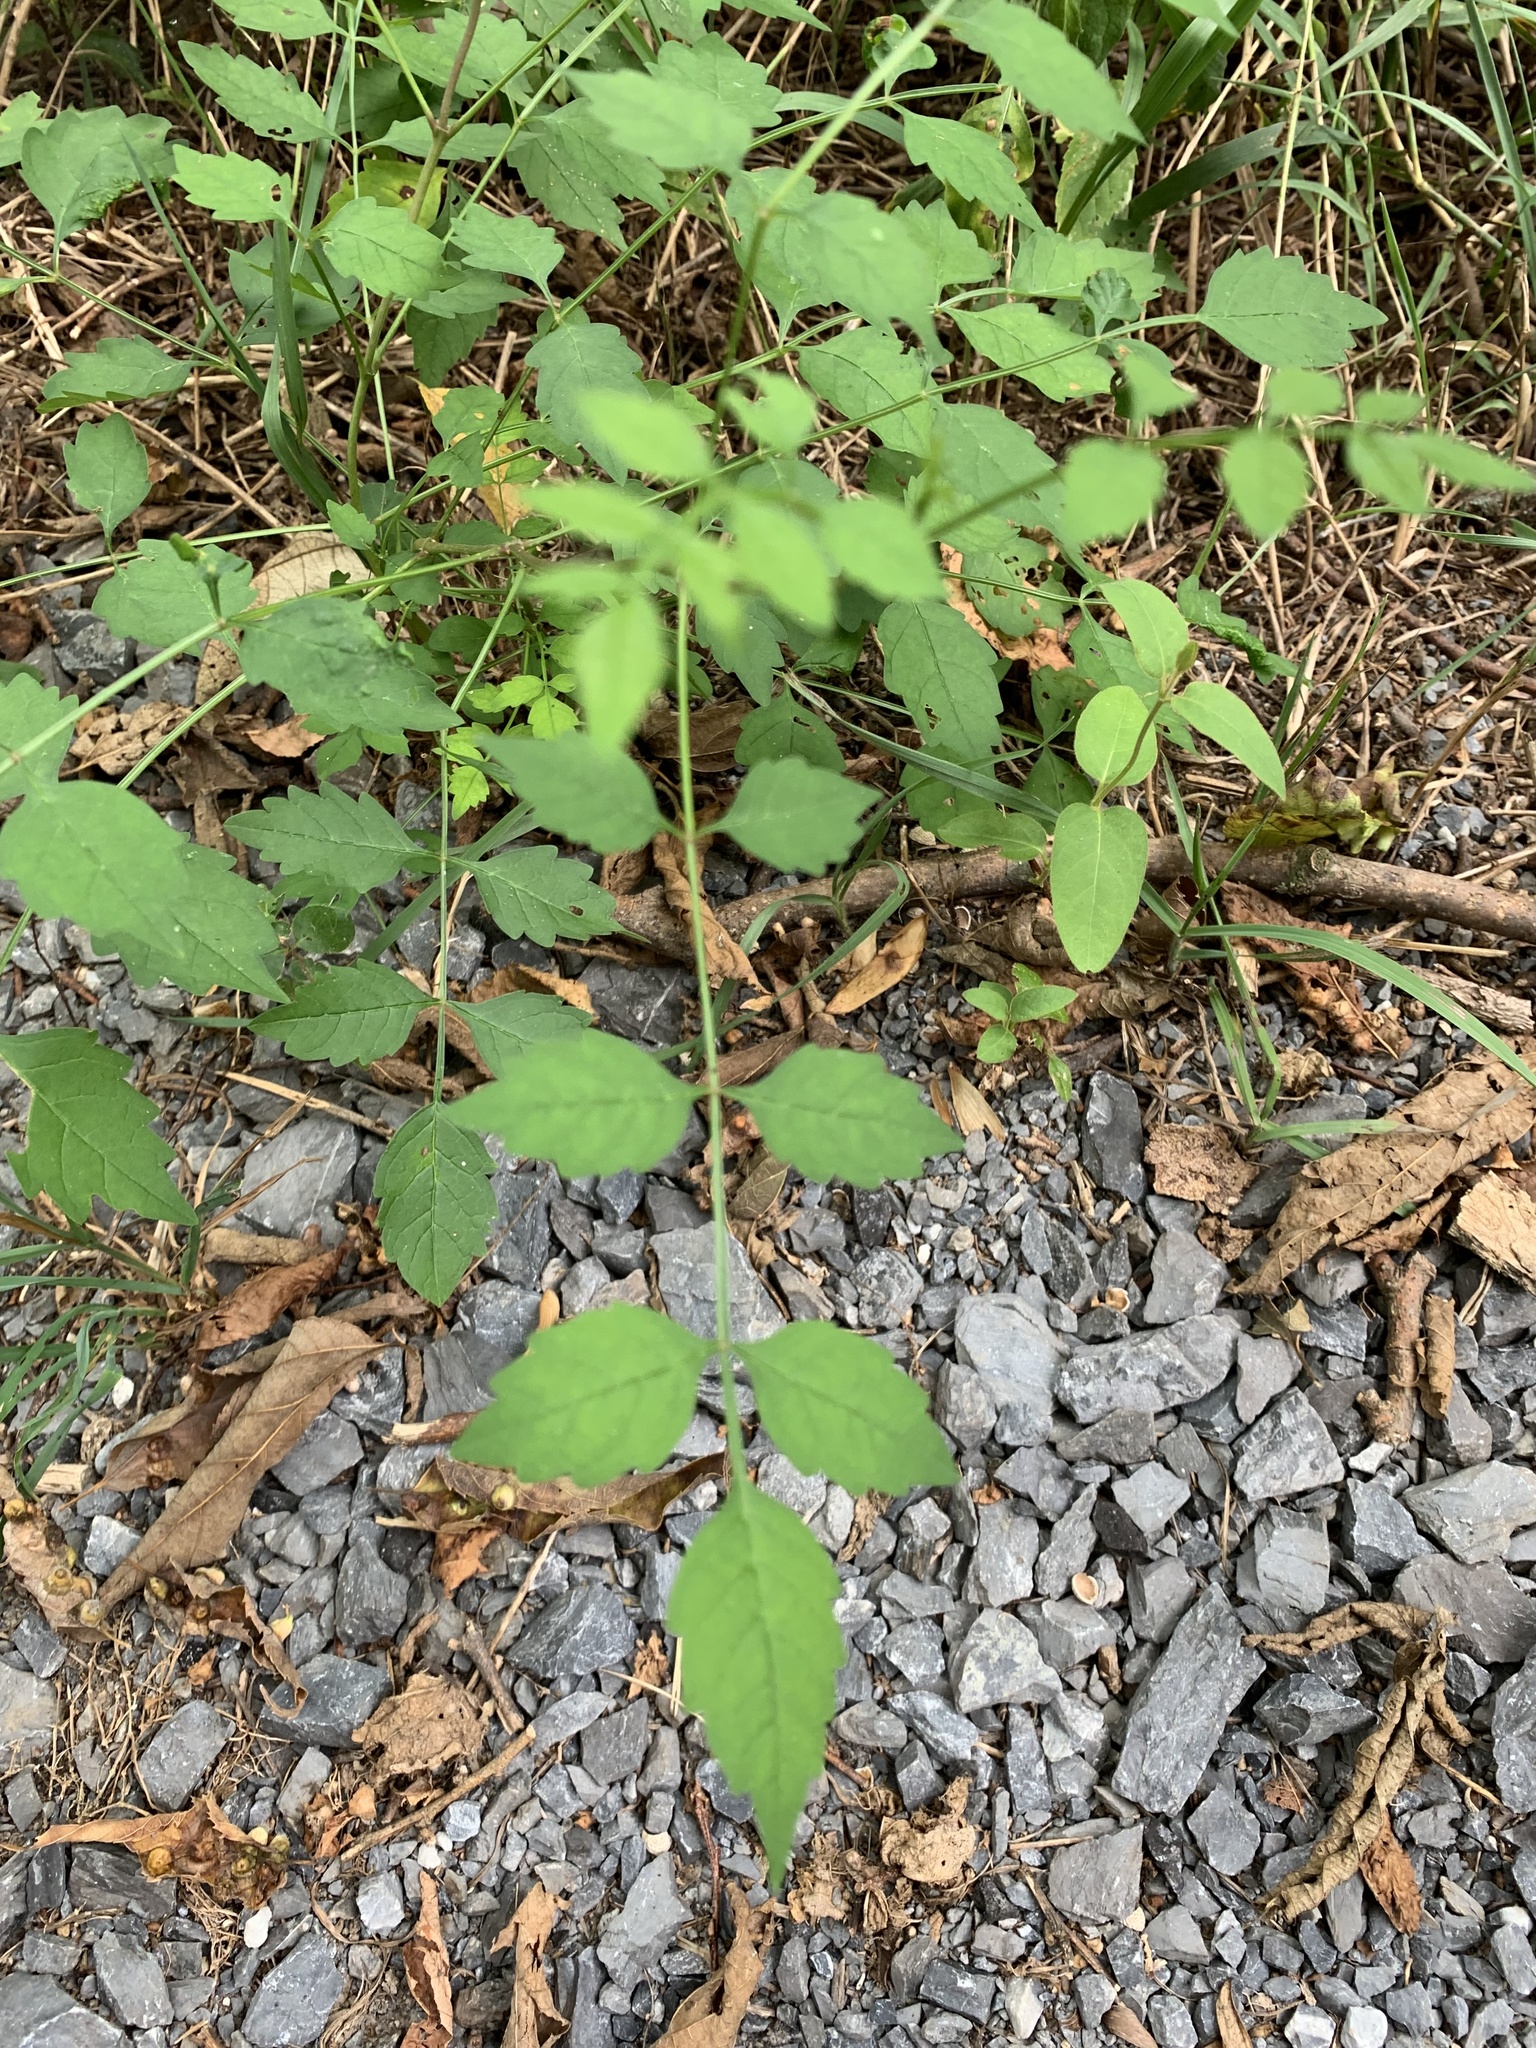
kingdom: Plantae
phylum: Tracheophyta
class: Magnoliopsida
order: Lamiales
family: Bignoniaceae
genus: Campsis
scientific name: Campsis radicans
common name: Trumpet-creeper
